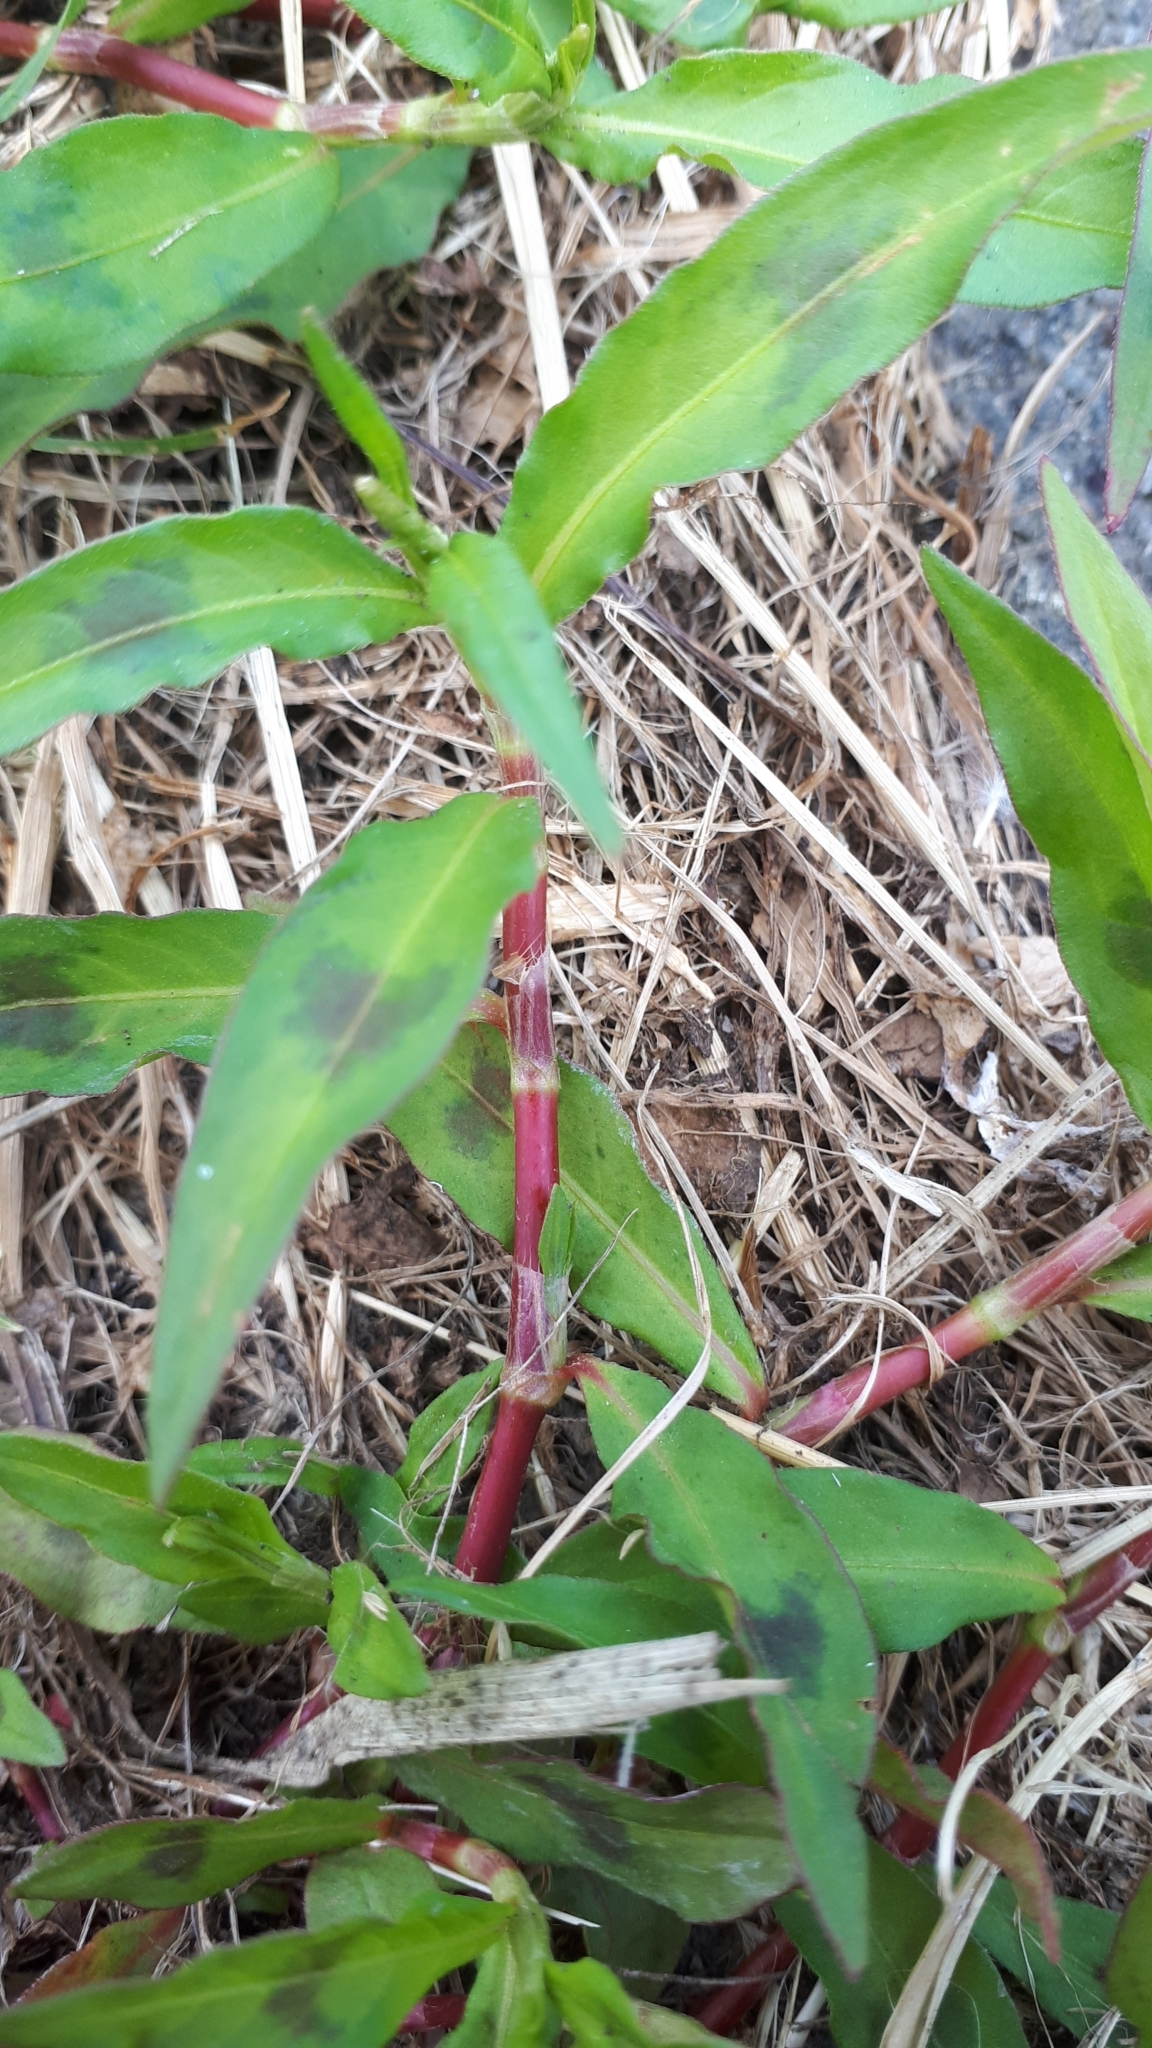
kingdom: Plantae
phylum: Tracheophyta
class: Magnoliopsida
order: Caryophyllales
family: Polygonaceae
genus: Persicaria
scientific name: Persicaria maculosa
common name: Redshank
